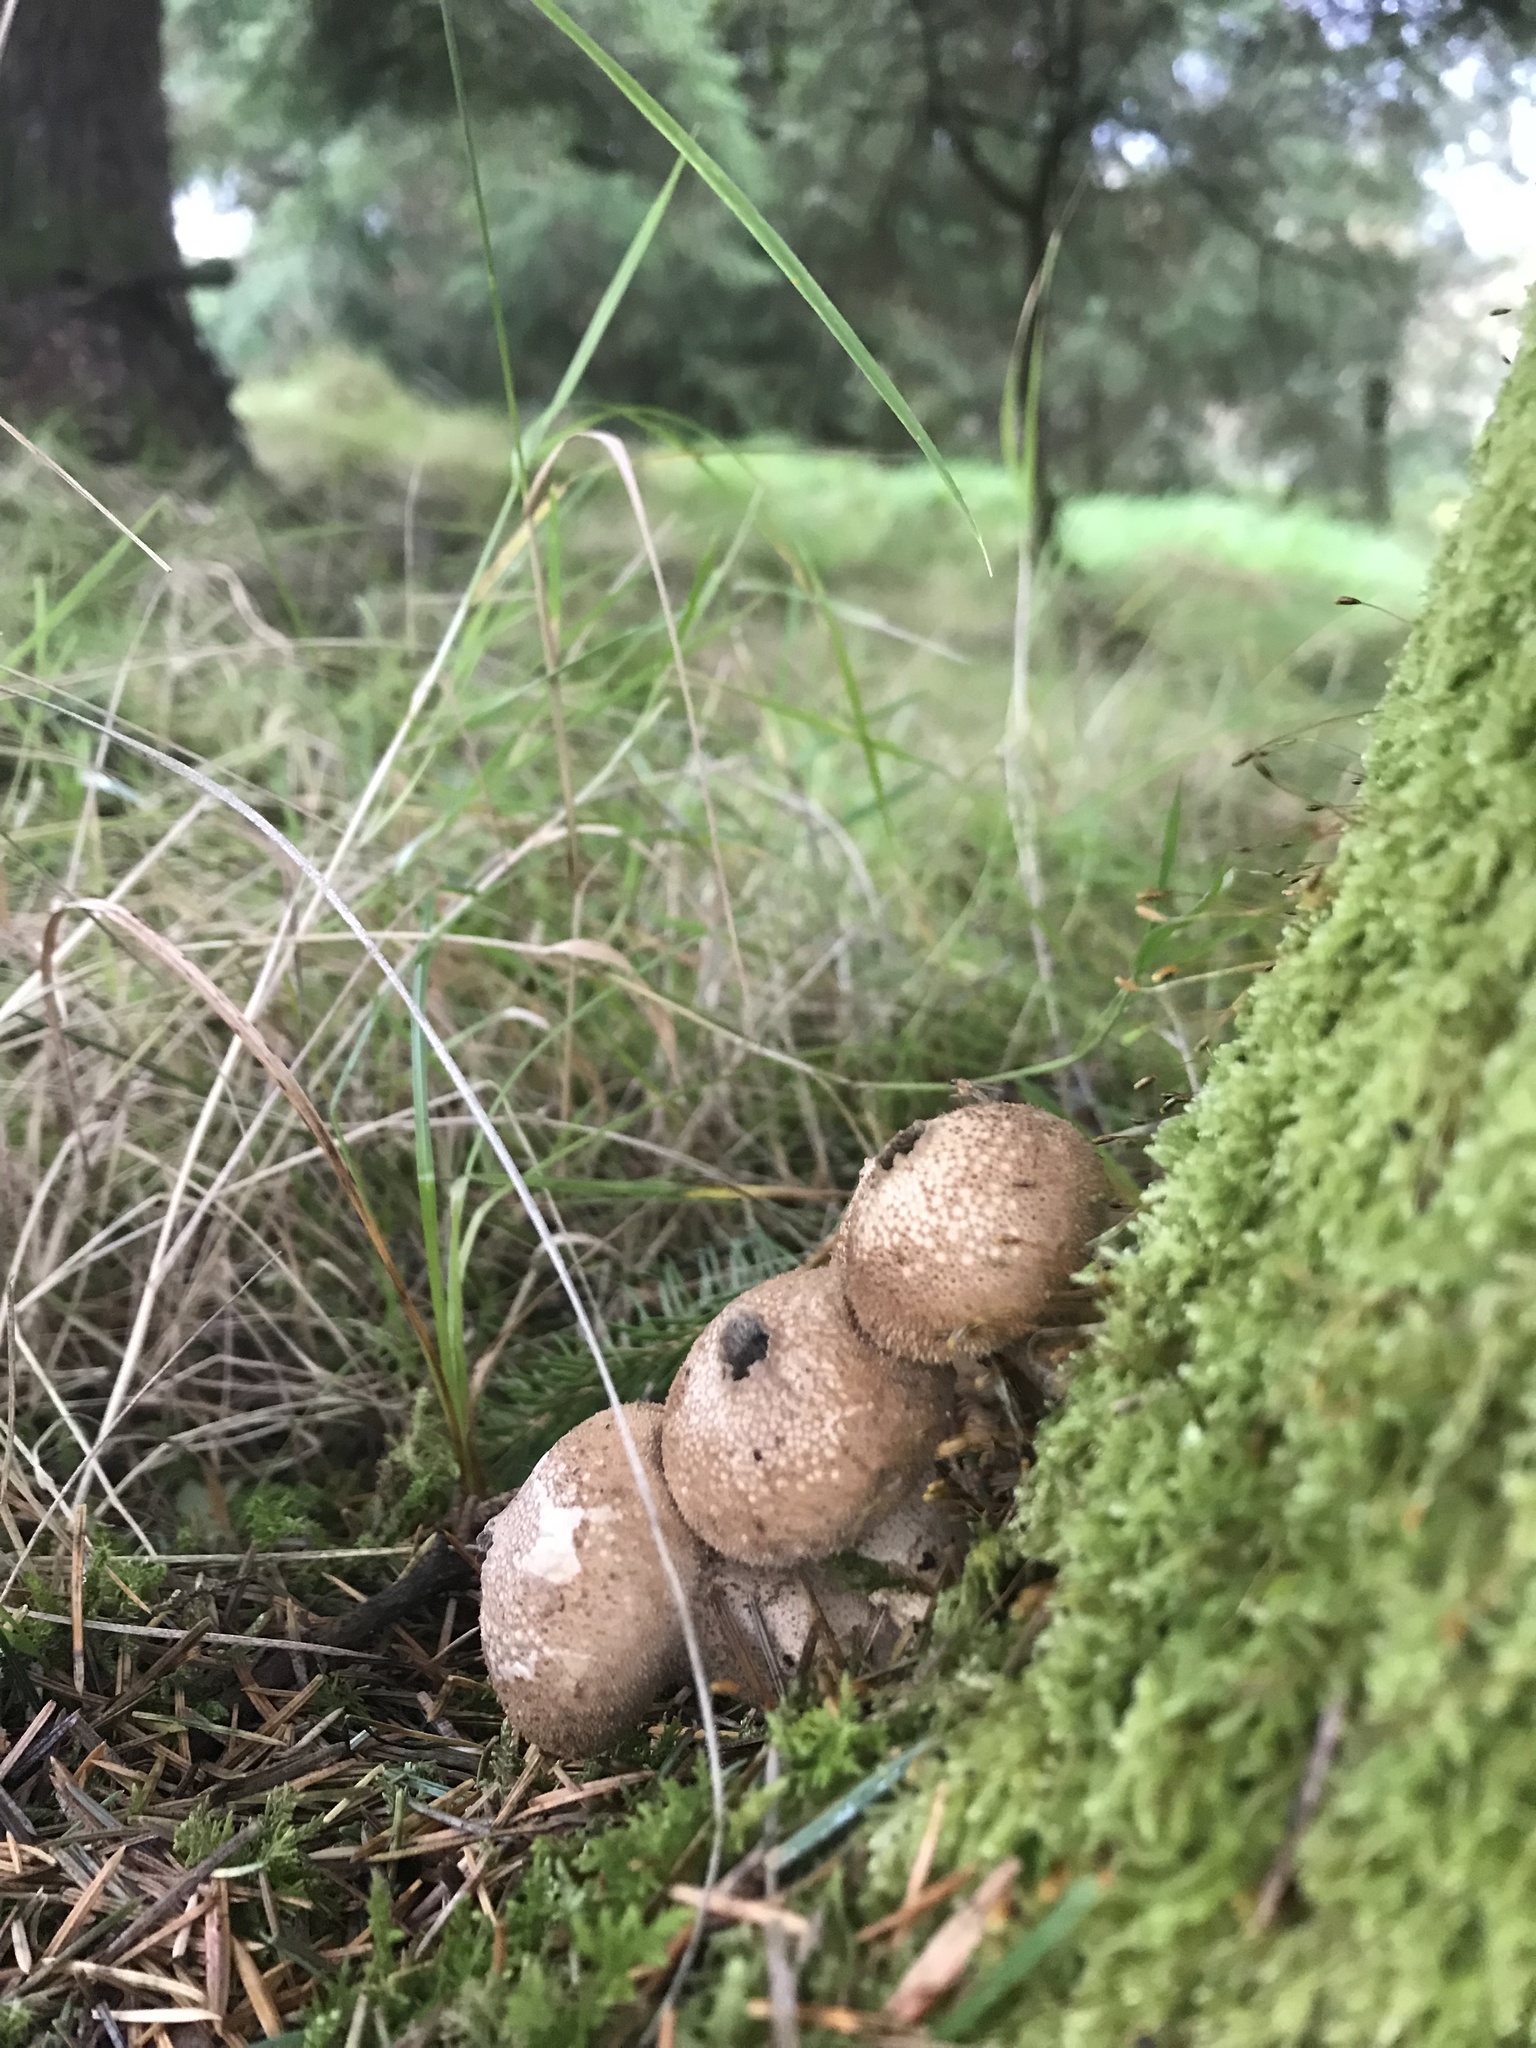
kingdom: Fungi
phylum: Basidiomycota
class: Agaricomycetes
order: Agaricales
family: Lycoperdaceae
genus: Apioperdon
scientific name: Apioperdon pyriforme
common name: Pear-shaped puffball
